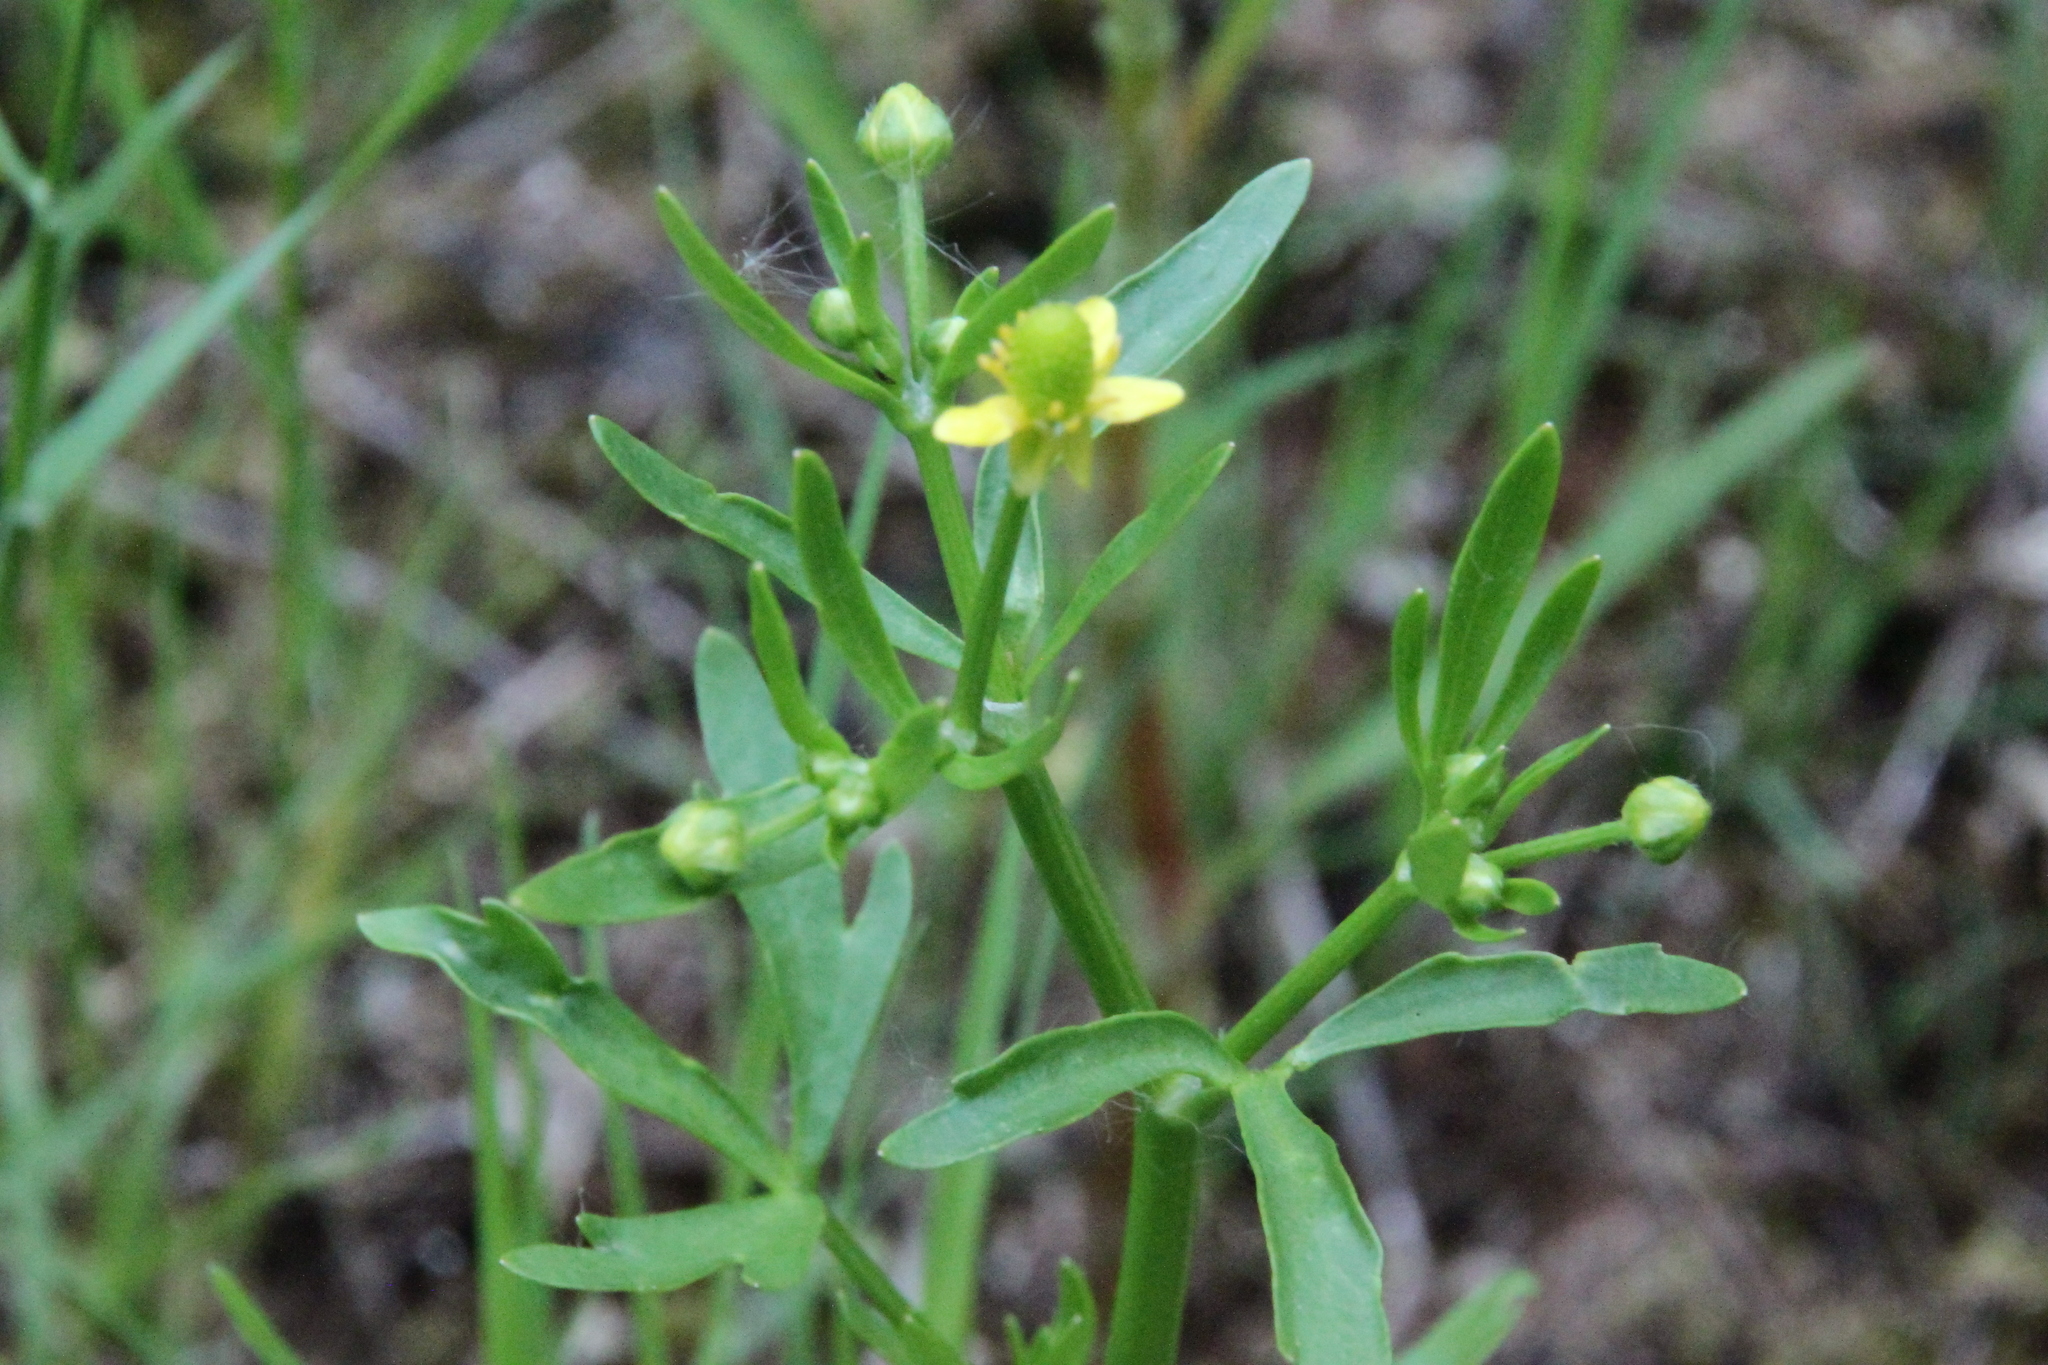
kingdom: Plantae
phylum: Tracheophyta
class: Magnoliopsida
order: Ranunculales
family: Ranunculaceae
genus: Ranunculus
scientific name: Ranunculus sceleratus
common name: Celery-leaved buttercup
